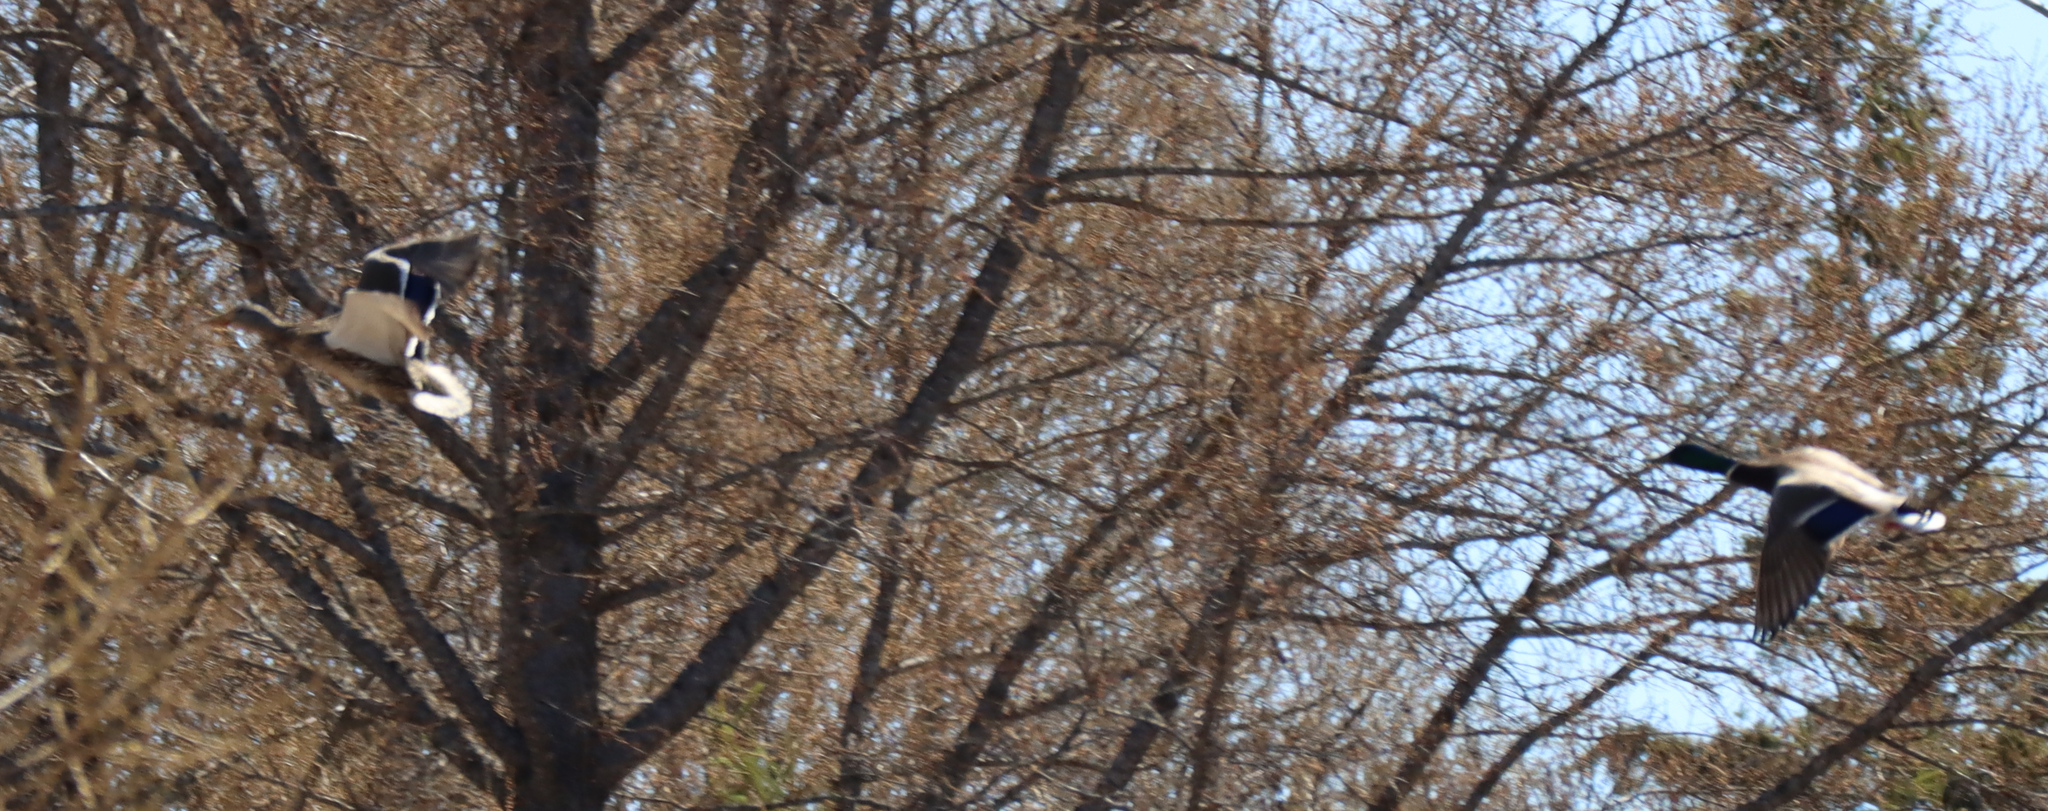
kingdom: Animalia
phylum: Chordata
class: Aves
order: Anseriformes
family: Anatidae
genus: Anas
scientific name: Anas platyrhynchos
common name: Mallard
